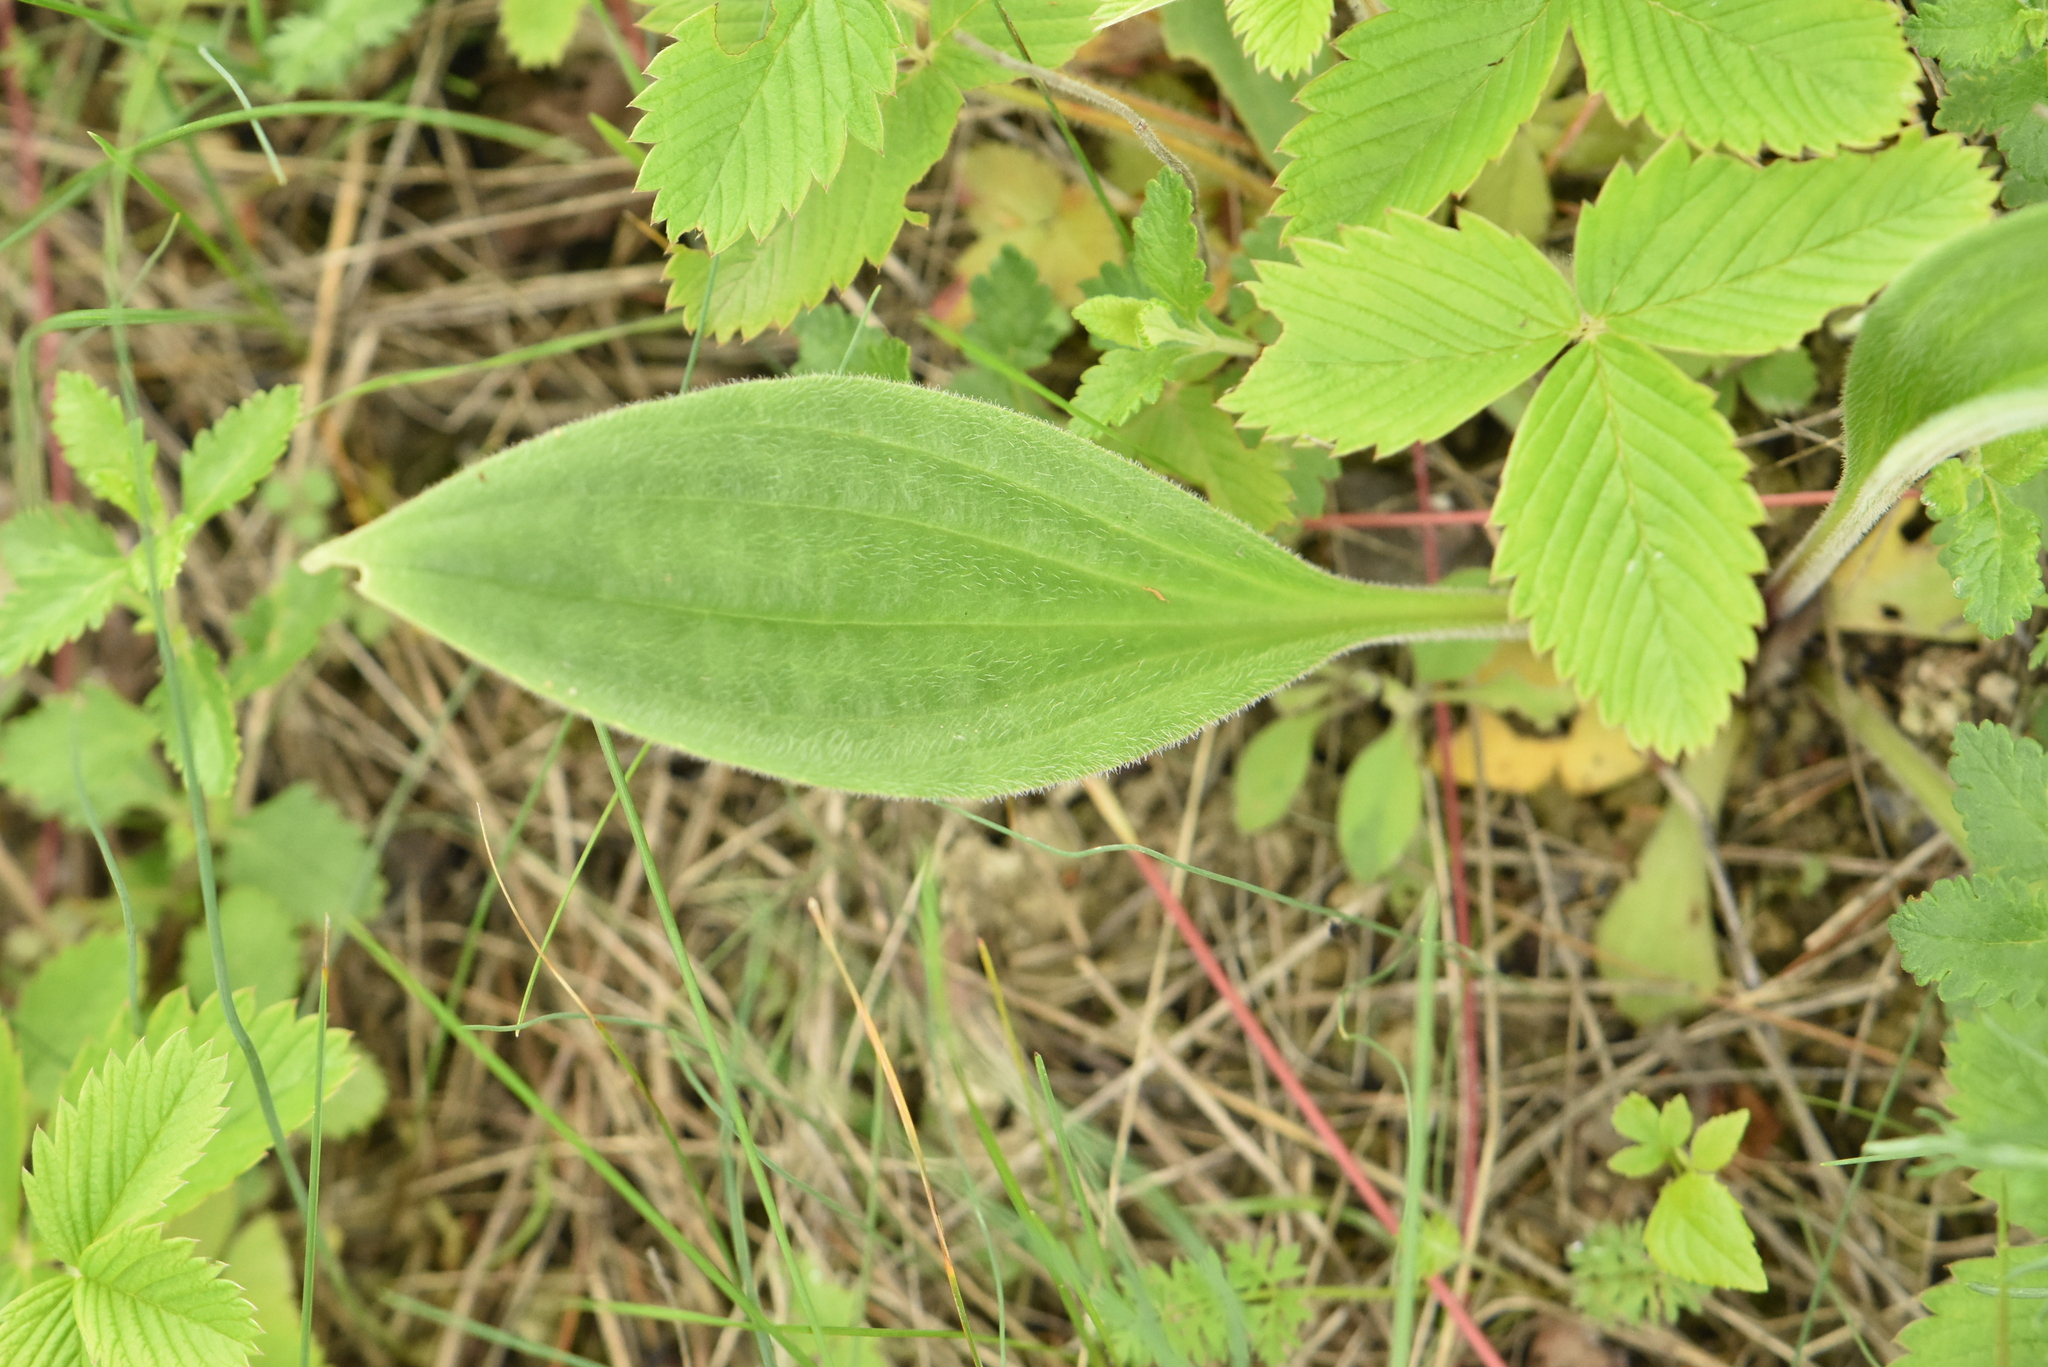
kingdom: Plantae
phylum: Tracheophyta
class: Magnoliopsida
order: Lamiales
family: Plantaginaceae
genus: Plantago
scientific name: Plantago urvillei
